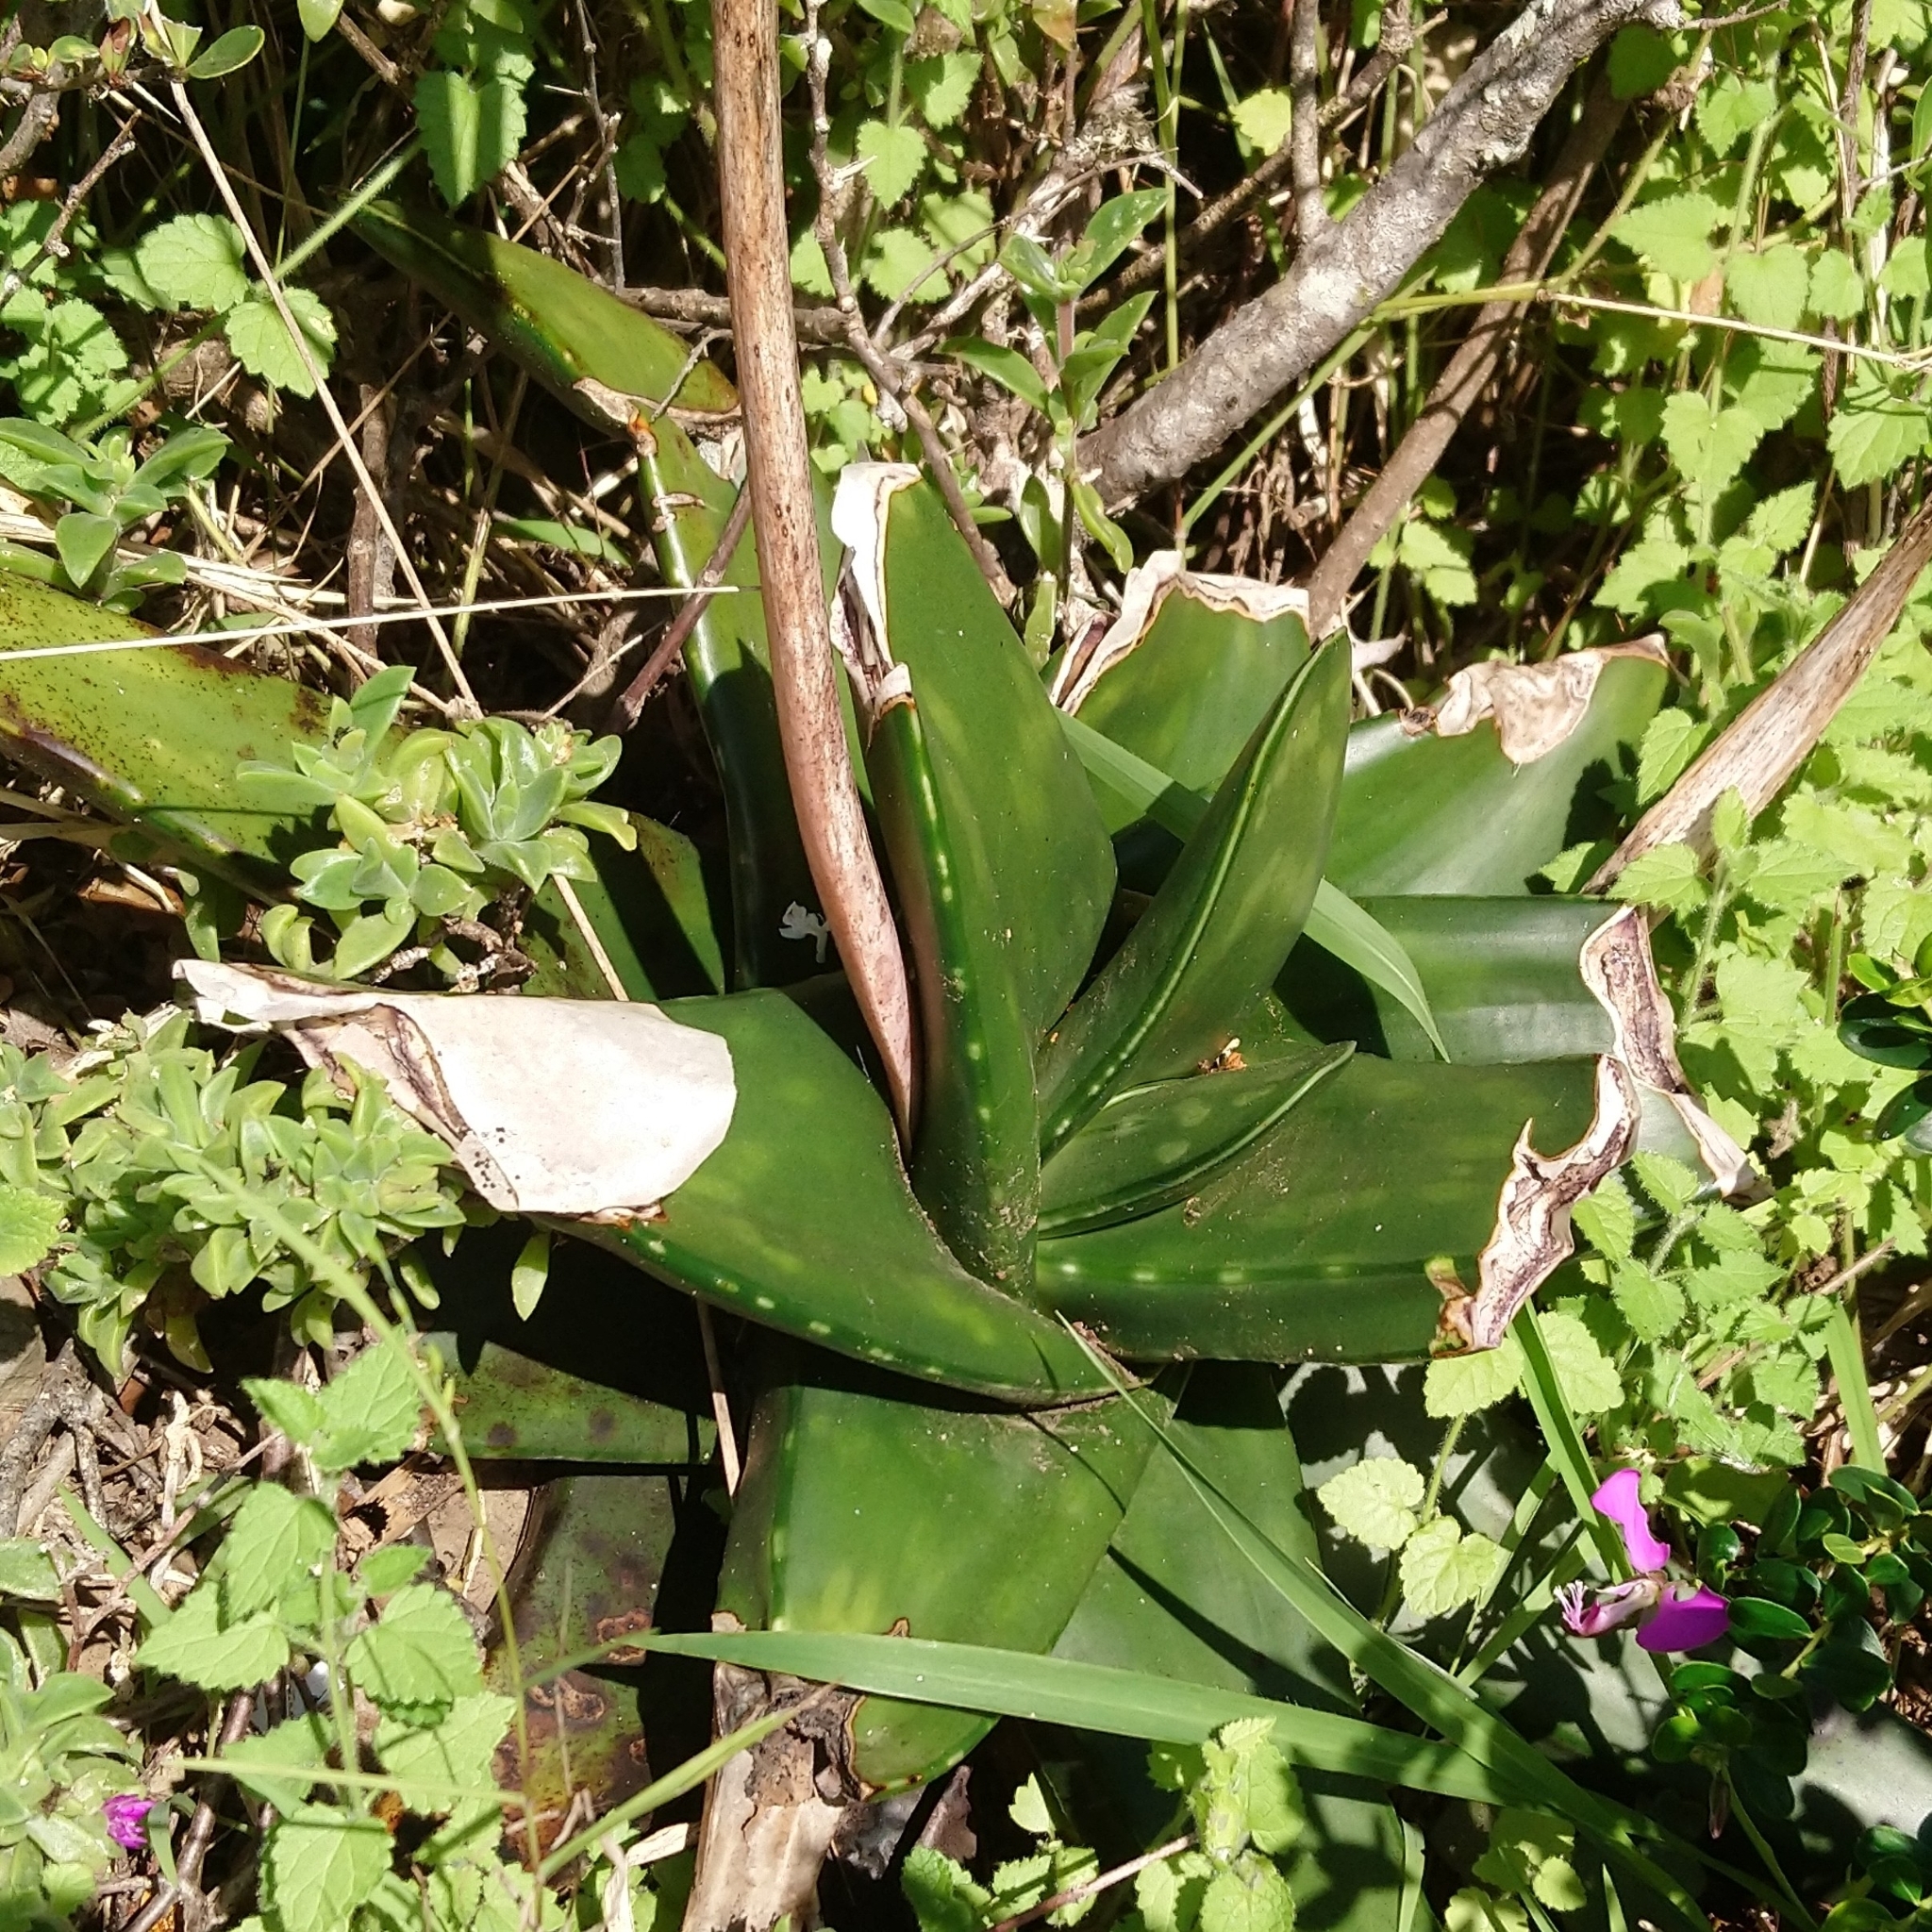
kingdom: Plantae
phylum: Tracheophyta
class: Liliopsida
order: Asparagales
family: Asphodelaceae
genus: Gasteria
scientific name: Gasteria excelsa
